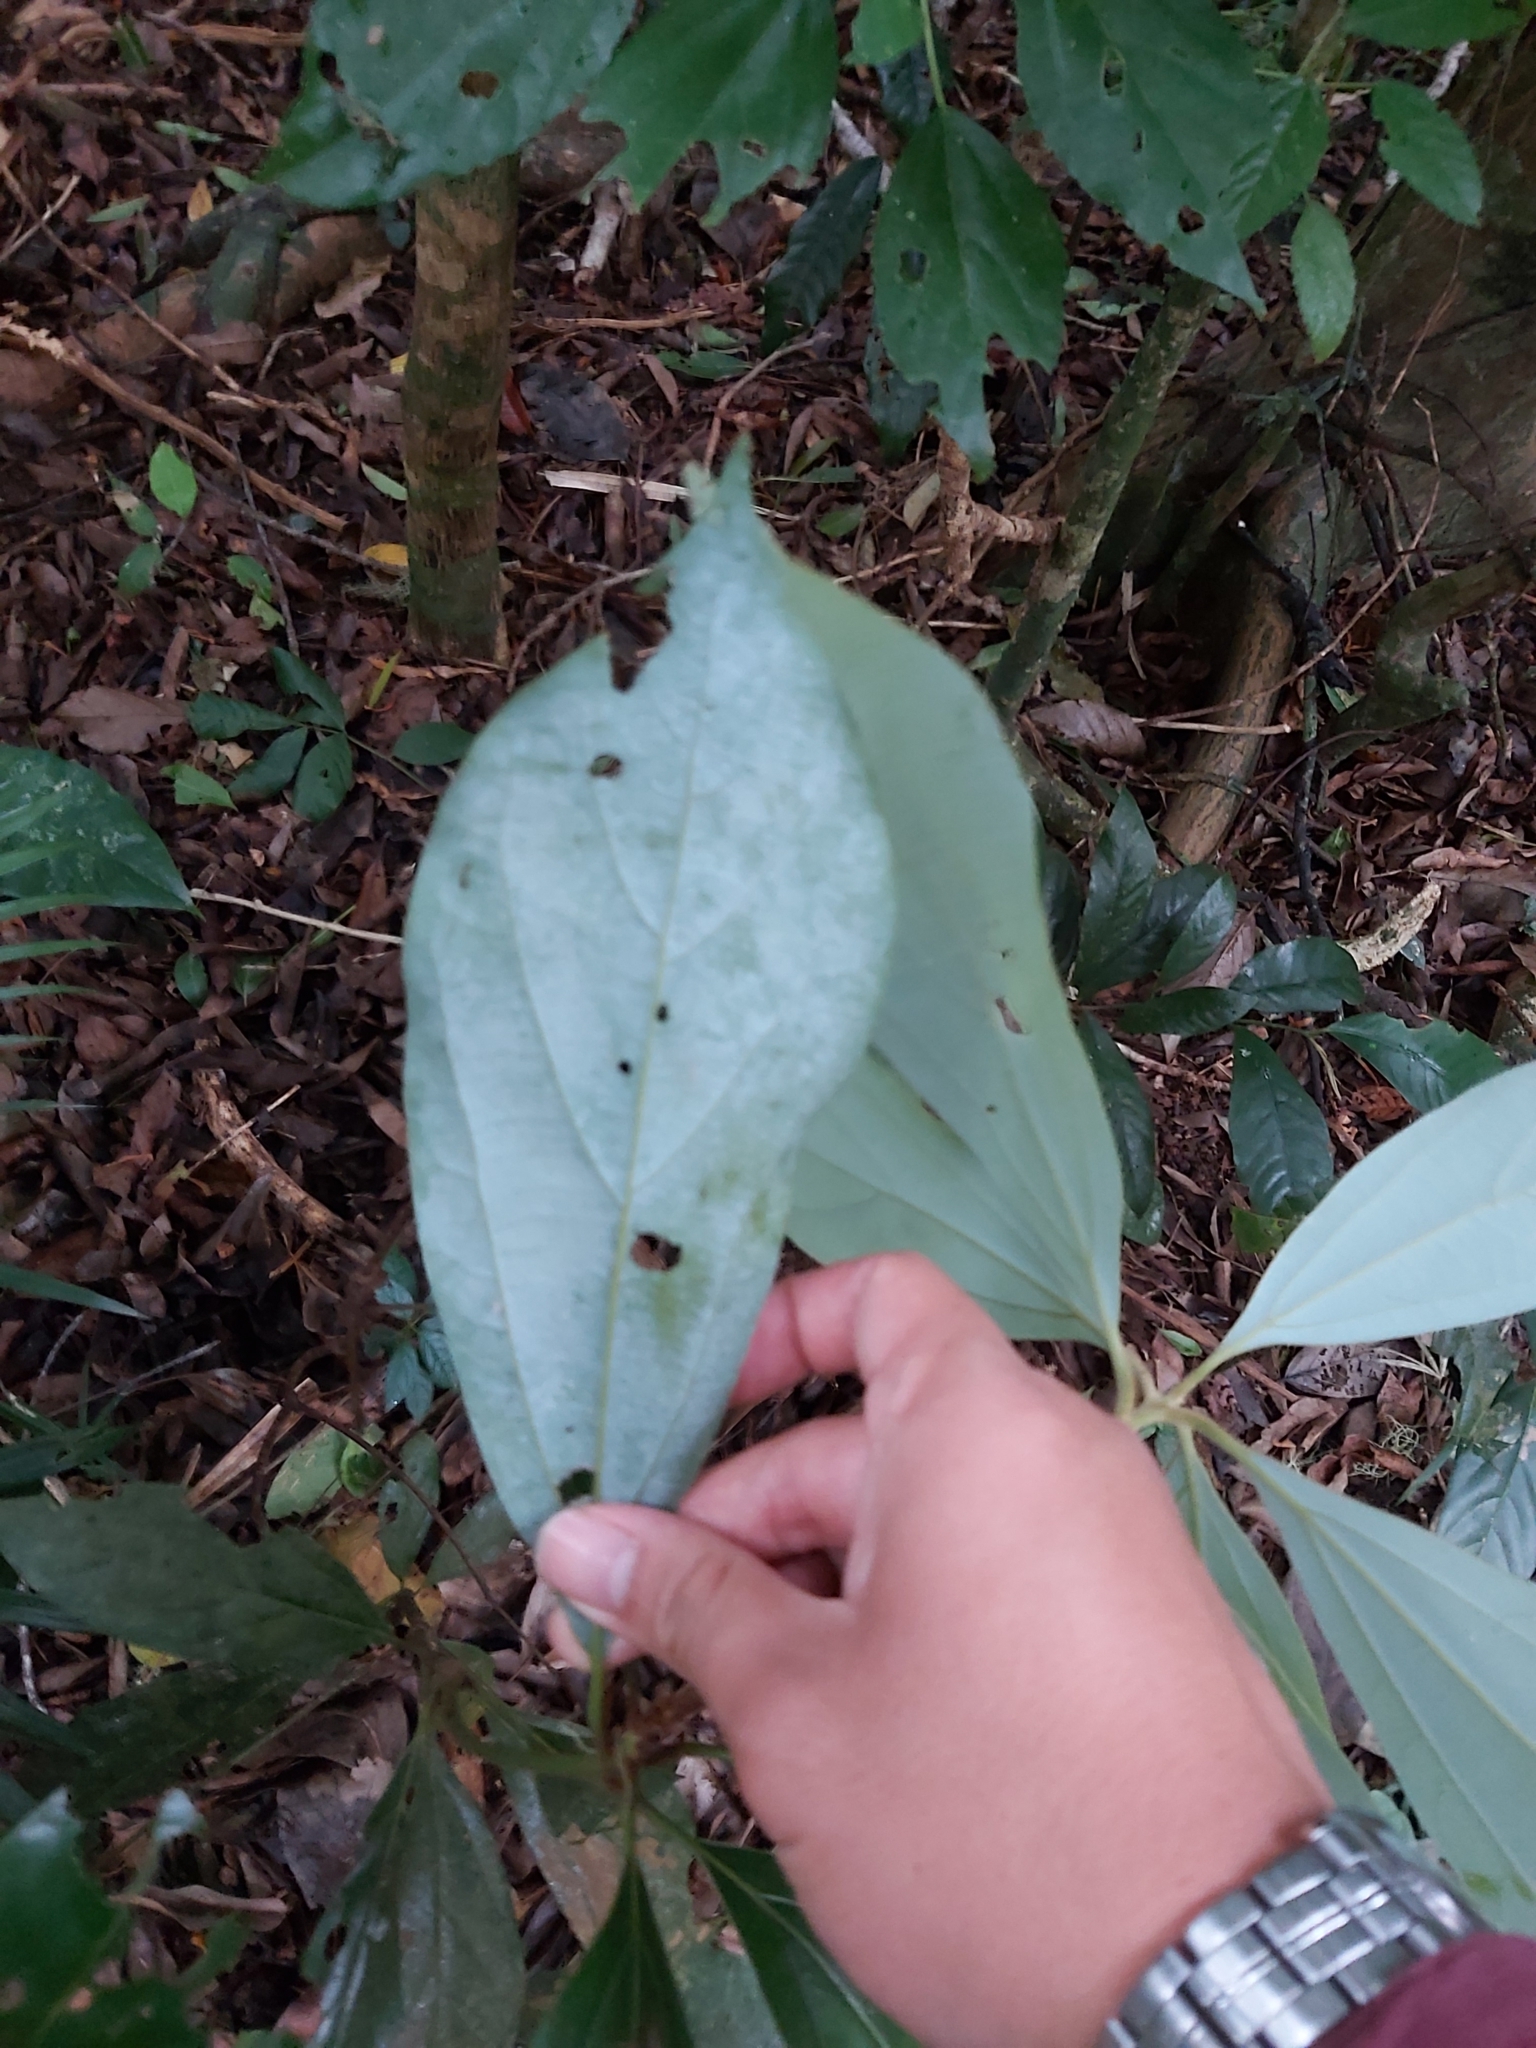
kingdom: Plantae
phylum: Tracheophyta
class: Magnoliopsida
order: Laurales
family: Lauraceae
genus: Neolitsea
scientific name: Neolitsea dealbata
